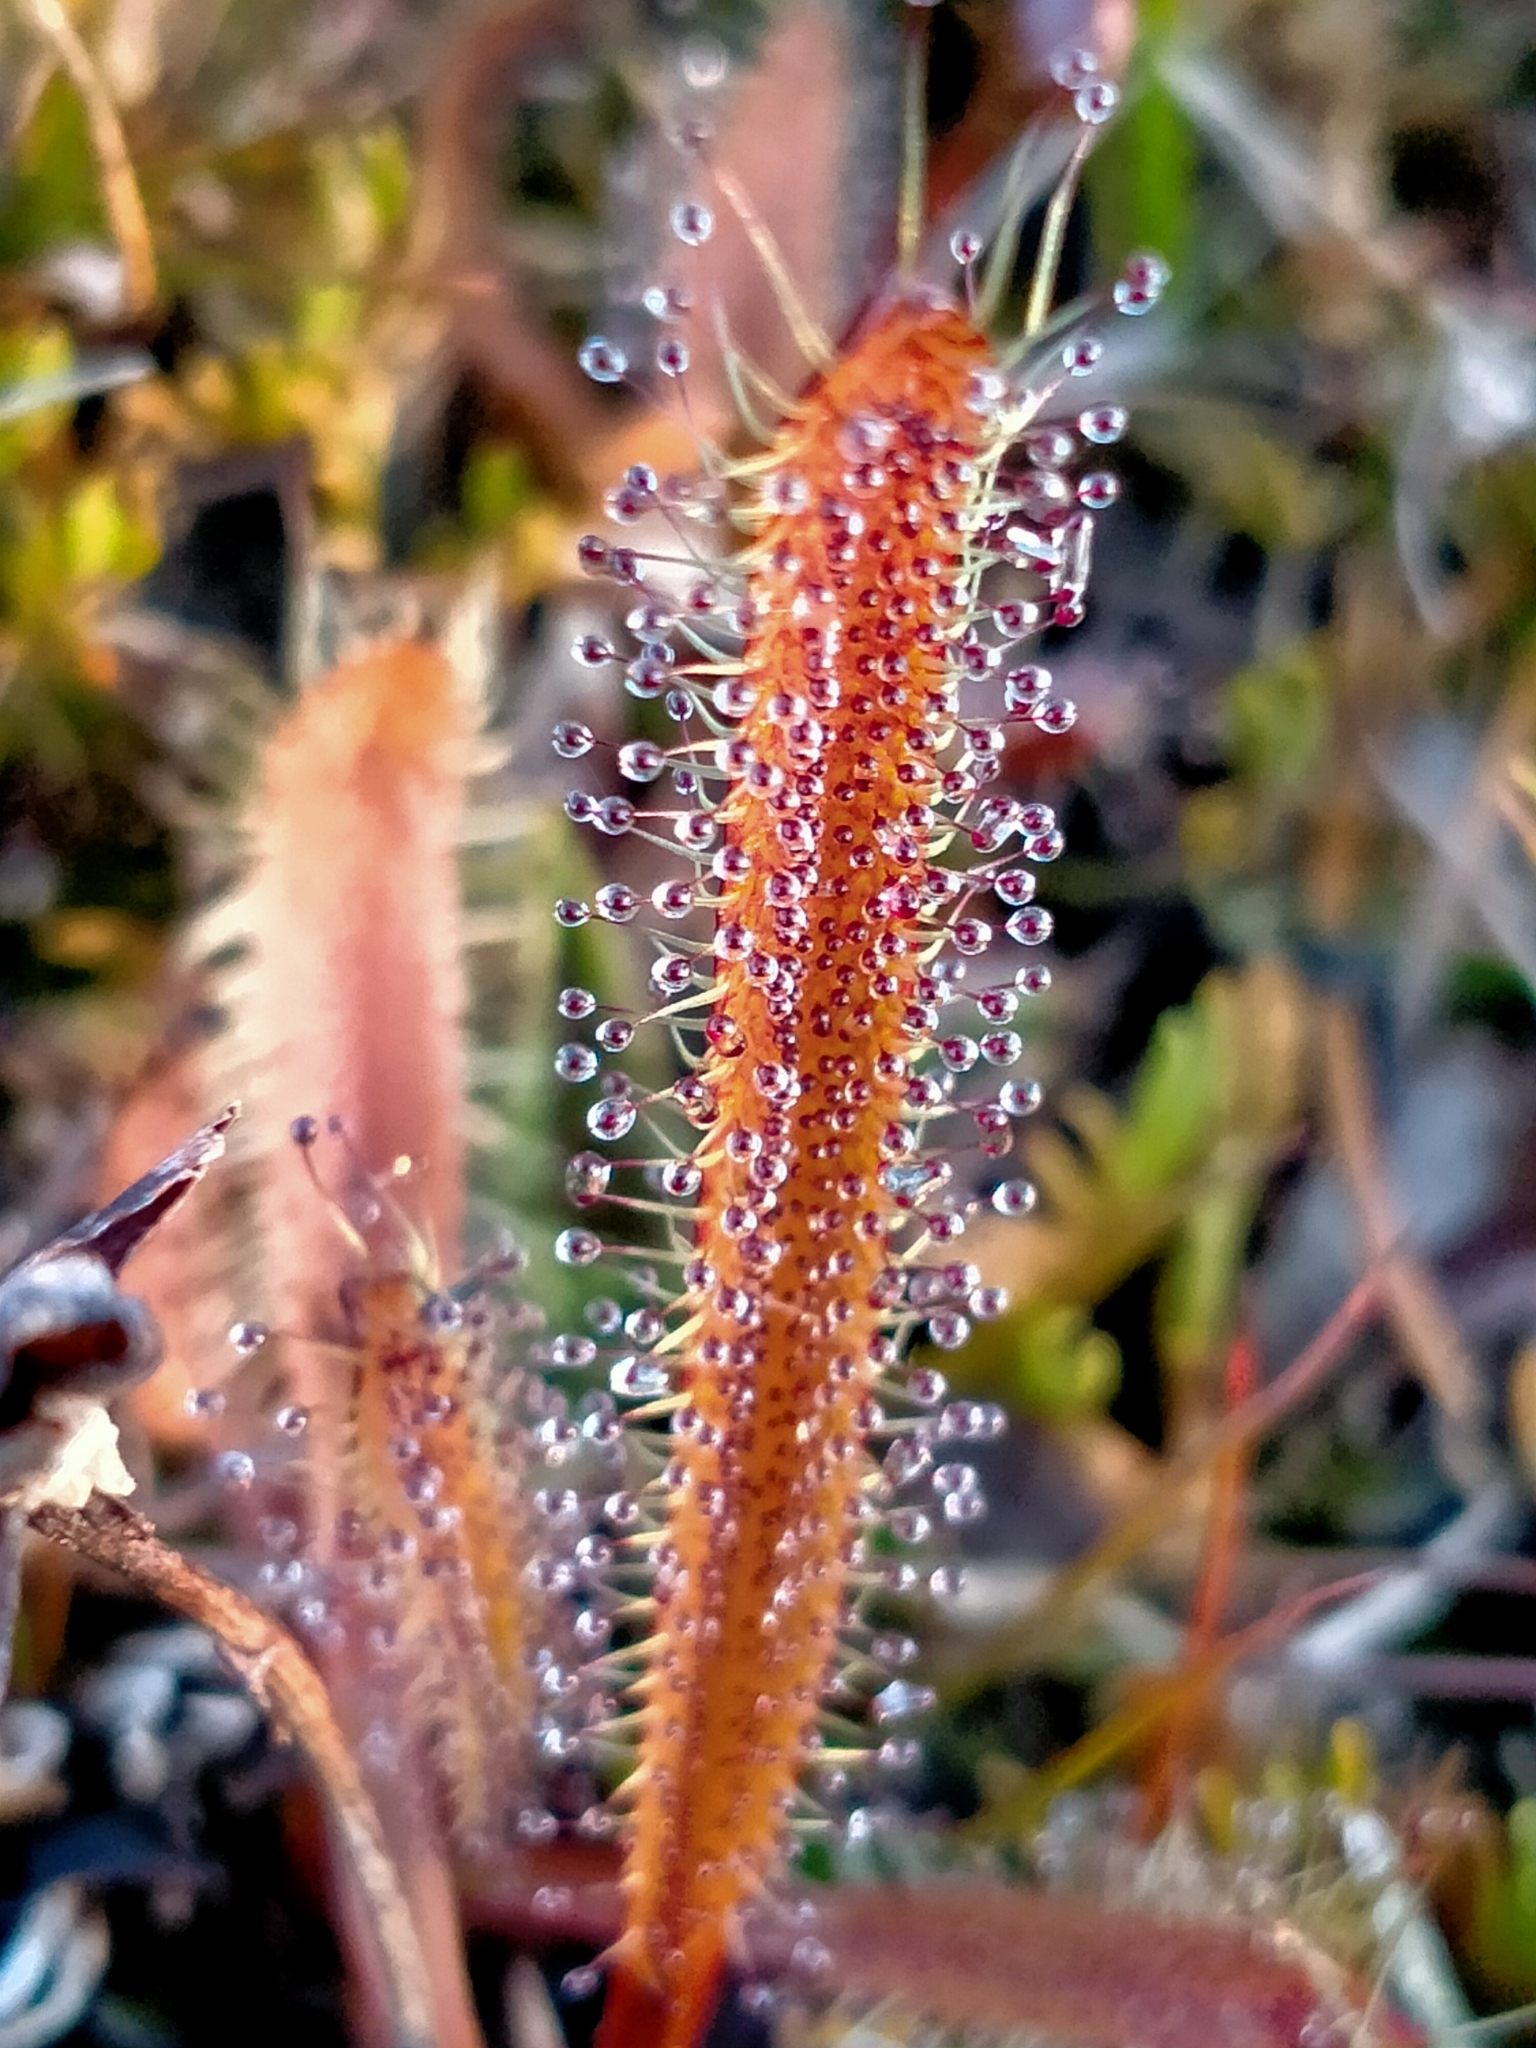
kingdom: Plantae
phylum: Tracheophyta
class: Magnoliopsida
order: Caryophyllales
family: Droseraceae
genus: Drosera
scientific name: Drosera arcturi
